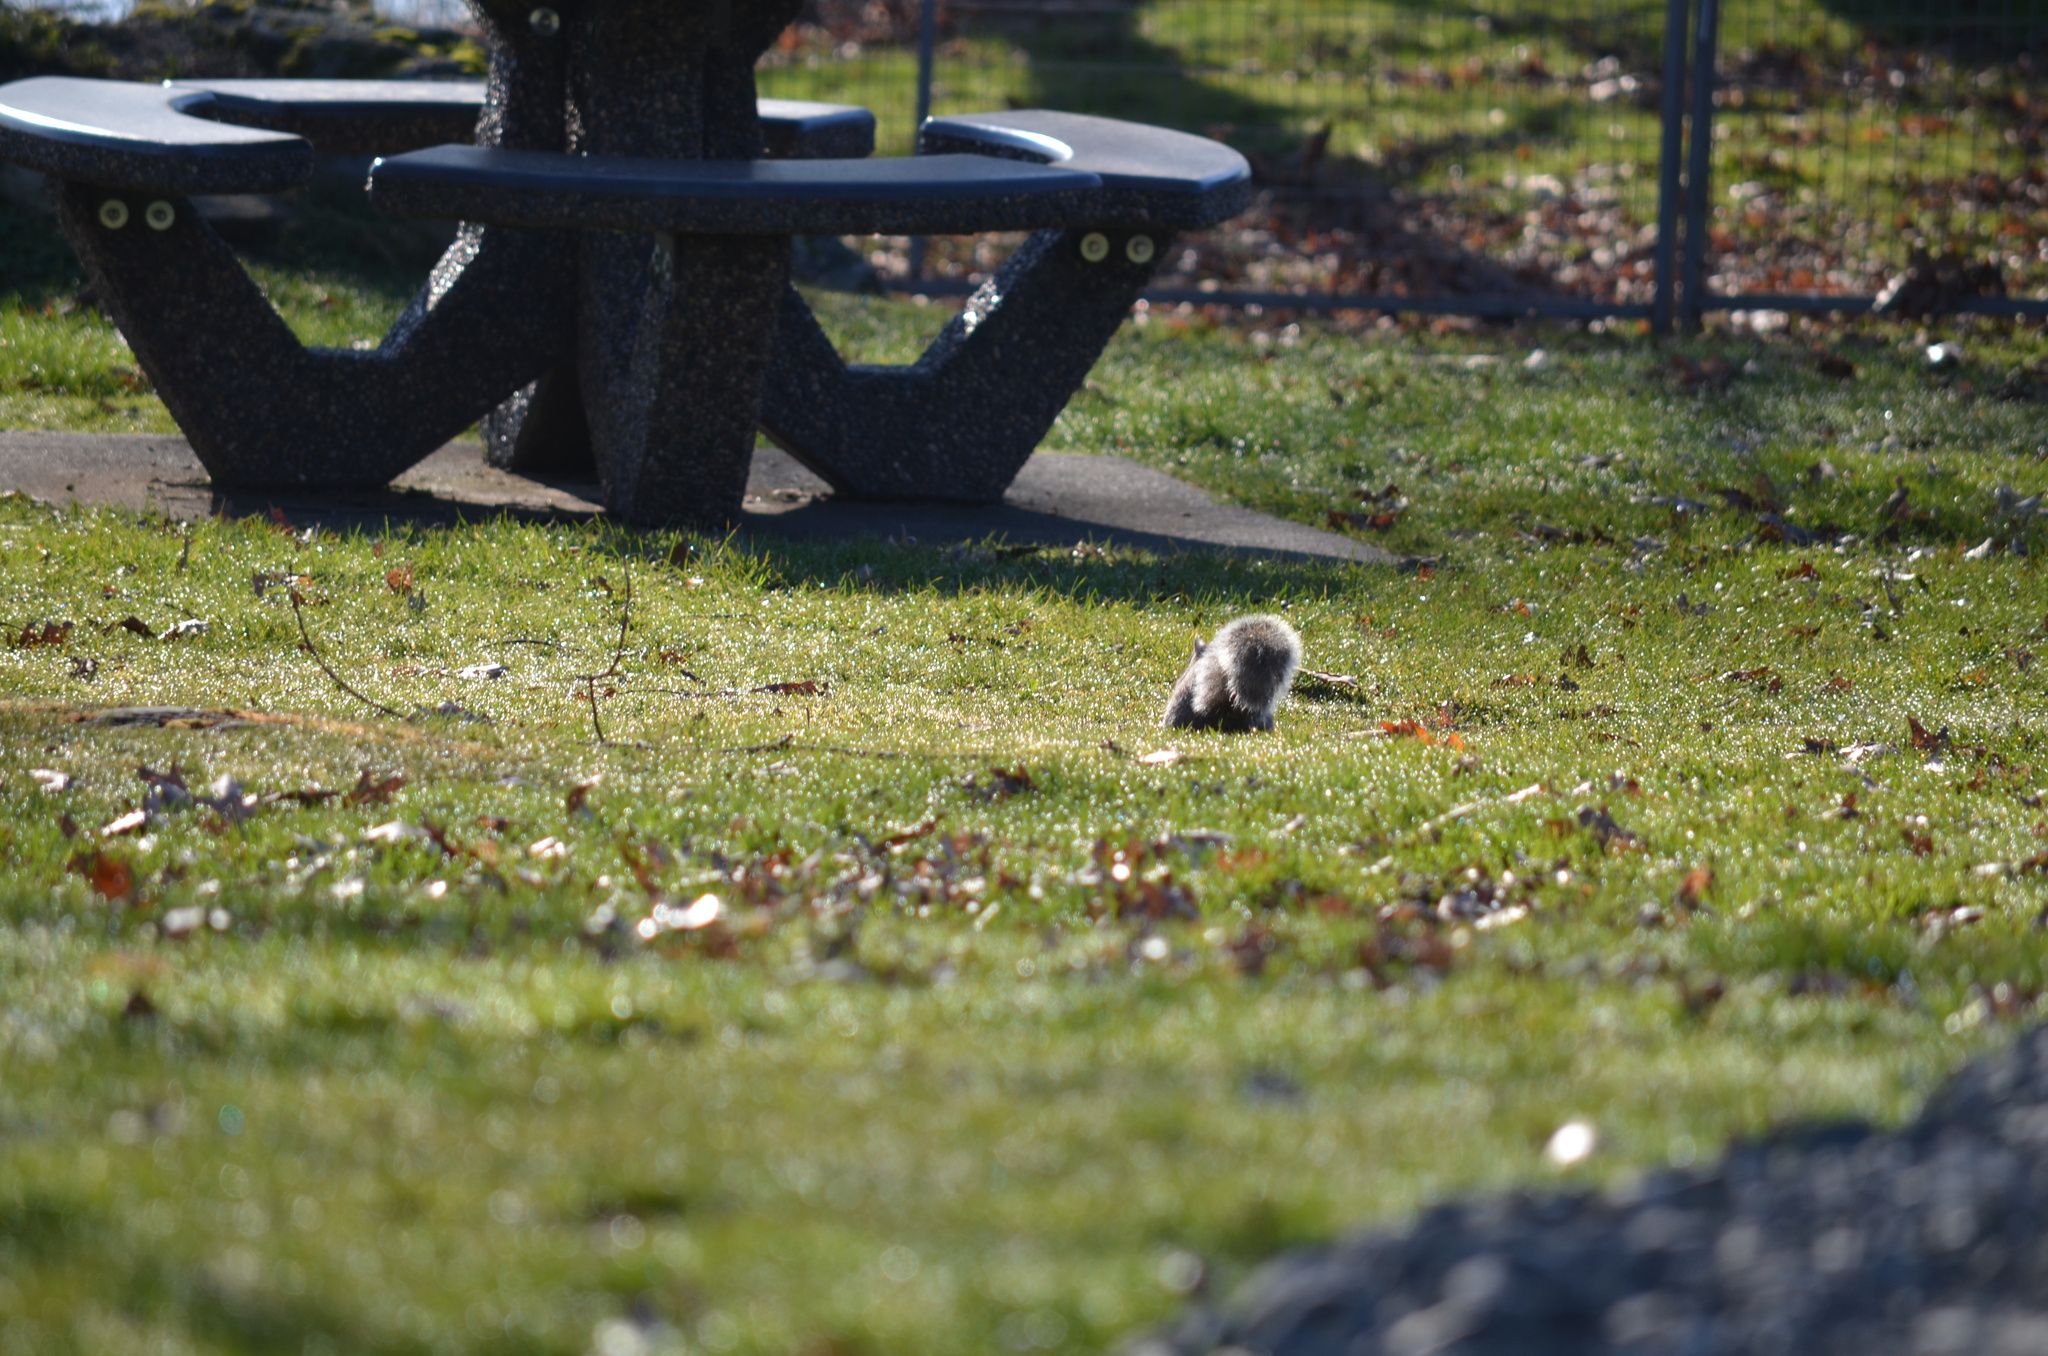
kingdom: Animalia
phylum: Chordata
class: Mammalia
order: Rodentia
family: Sciuridae
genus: Sciurus
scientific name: Sciurus carolinensis
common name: Eastern gray squirrel
